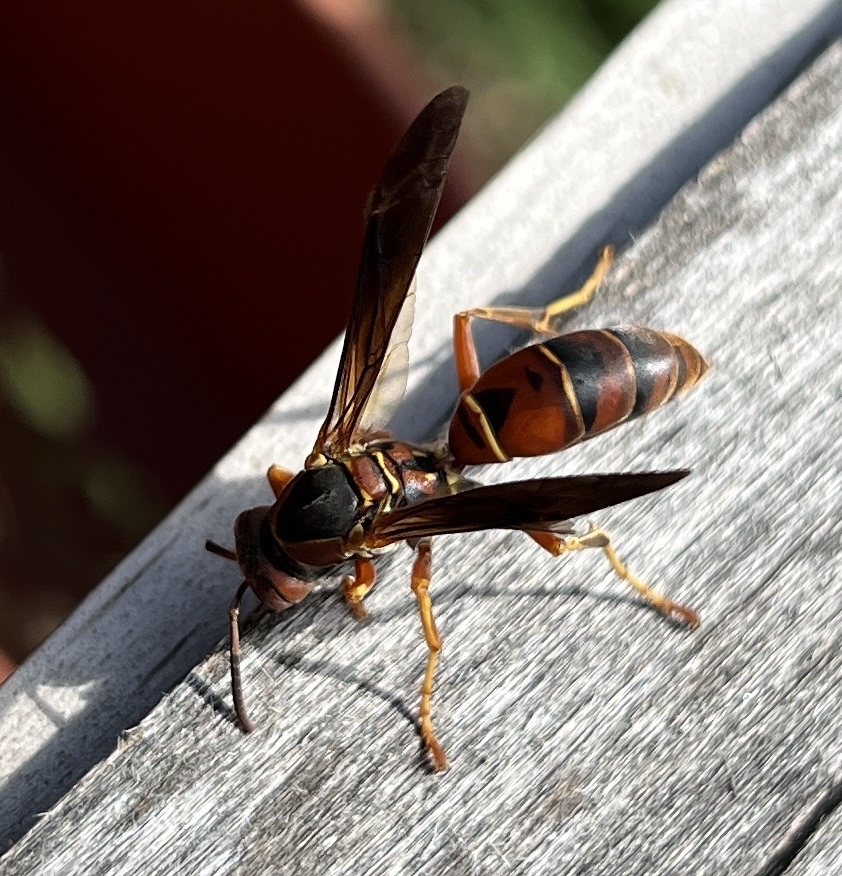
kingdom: Animalia
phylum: Arthropoda
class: Insecta
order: Hymenoptera
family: Eumenidae
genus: Polistes
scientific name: Polistes fuscatus
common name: Dark paper wasp
